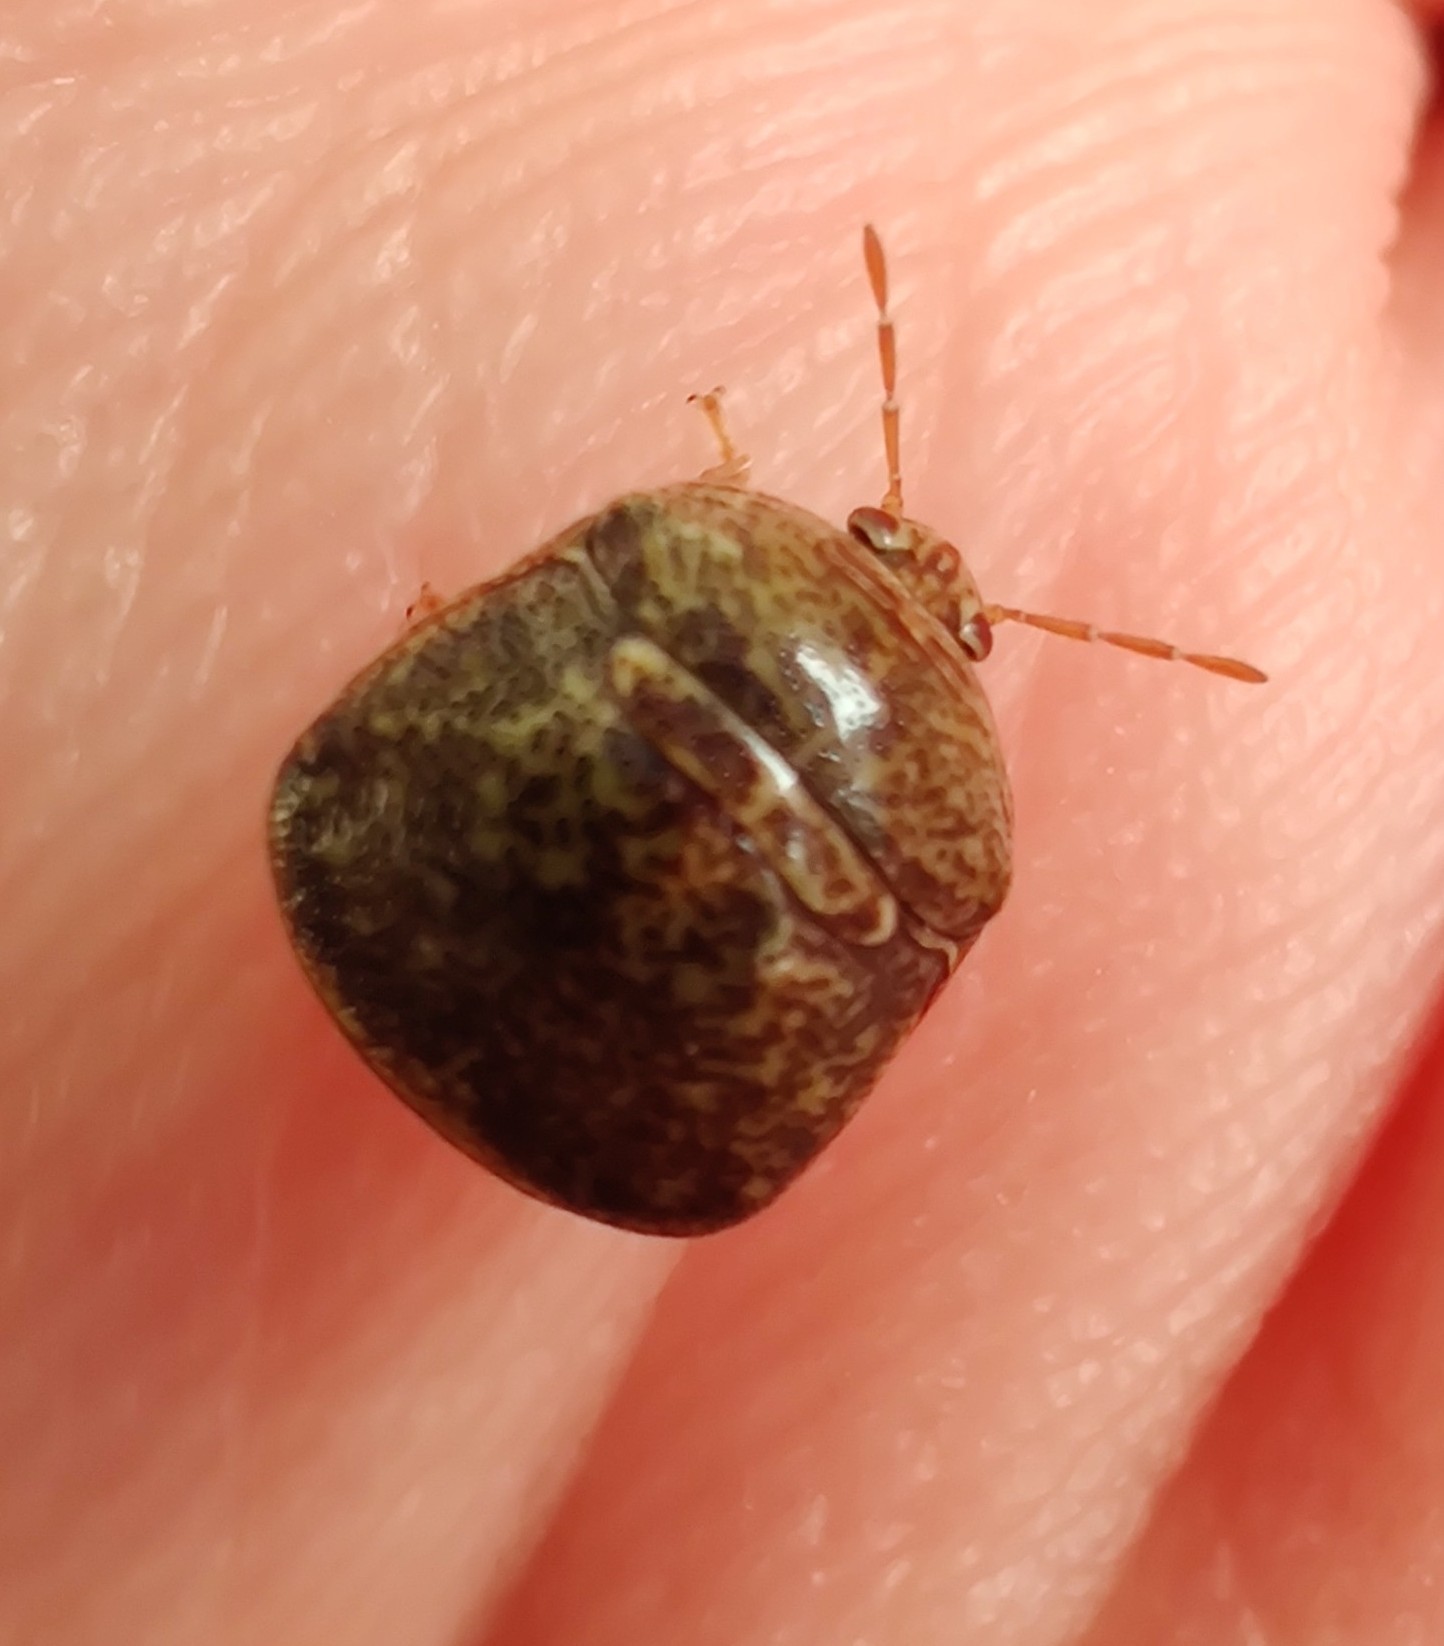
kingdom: Animalia
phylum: Arthropoda
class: Insecta
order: Hemiptera
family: Plataspidae
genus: Megacopta
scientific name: Megacopta cribraria
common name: Bean plataspid
